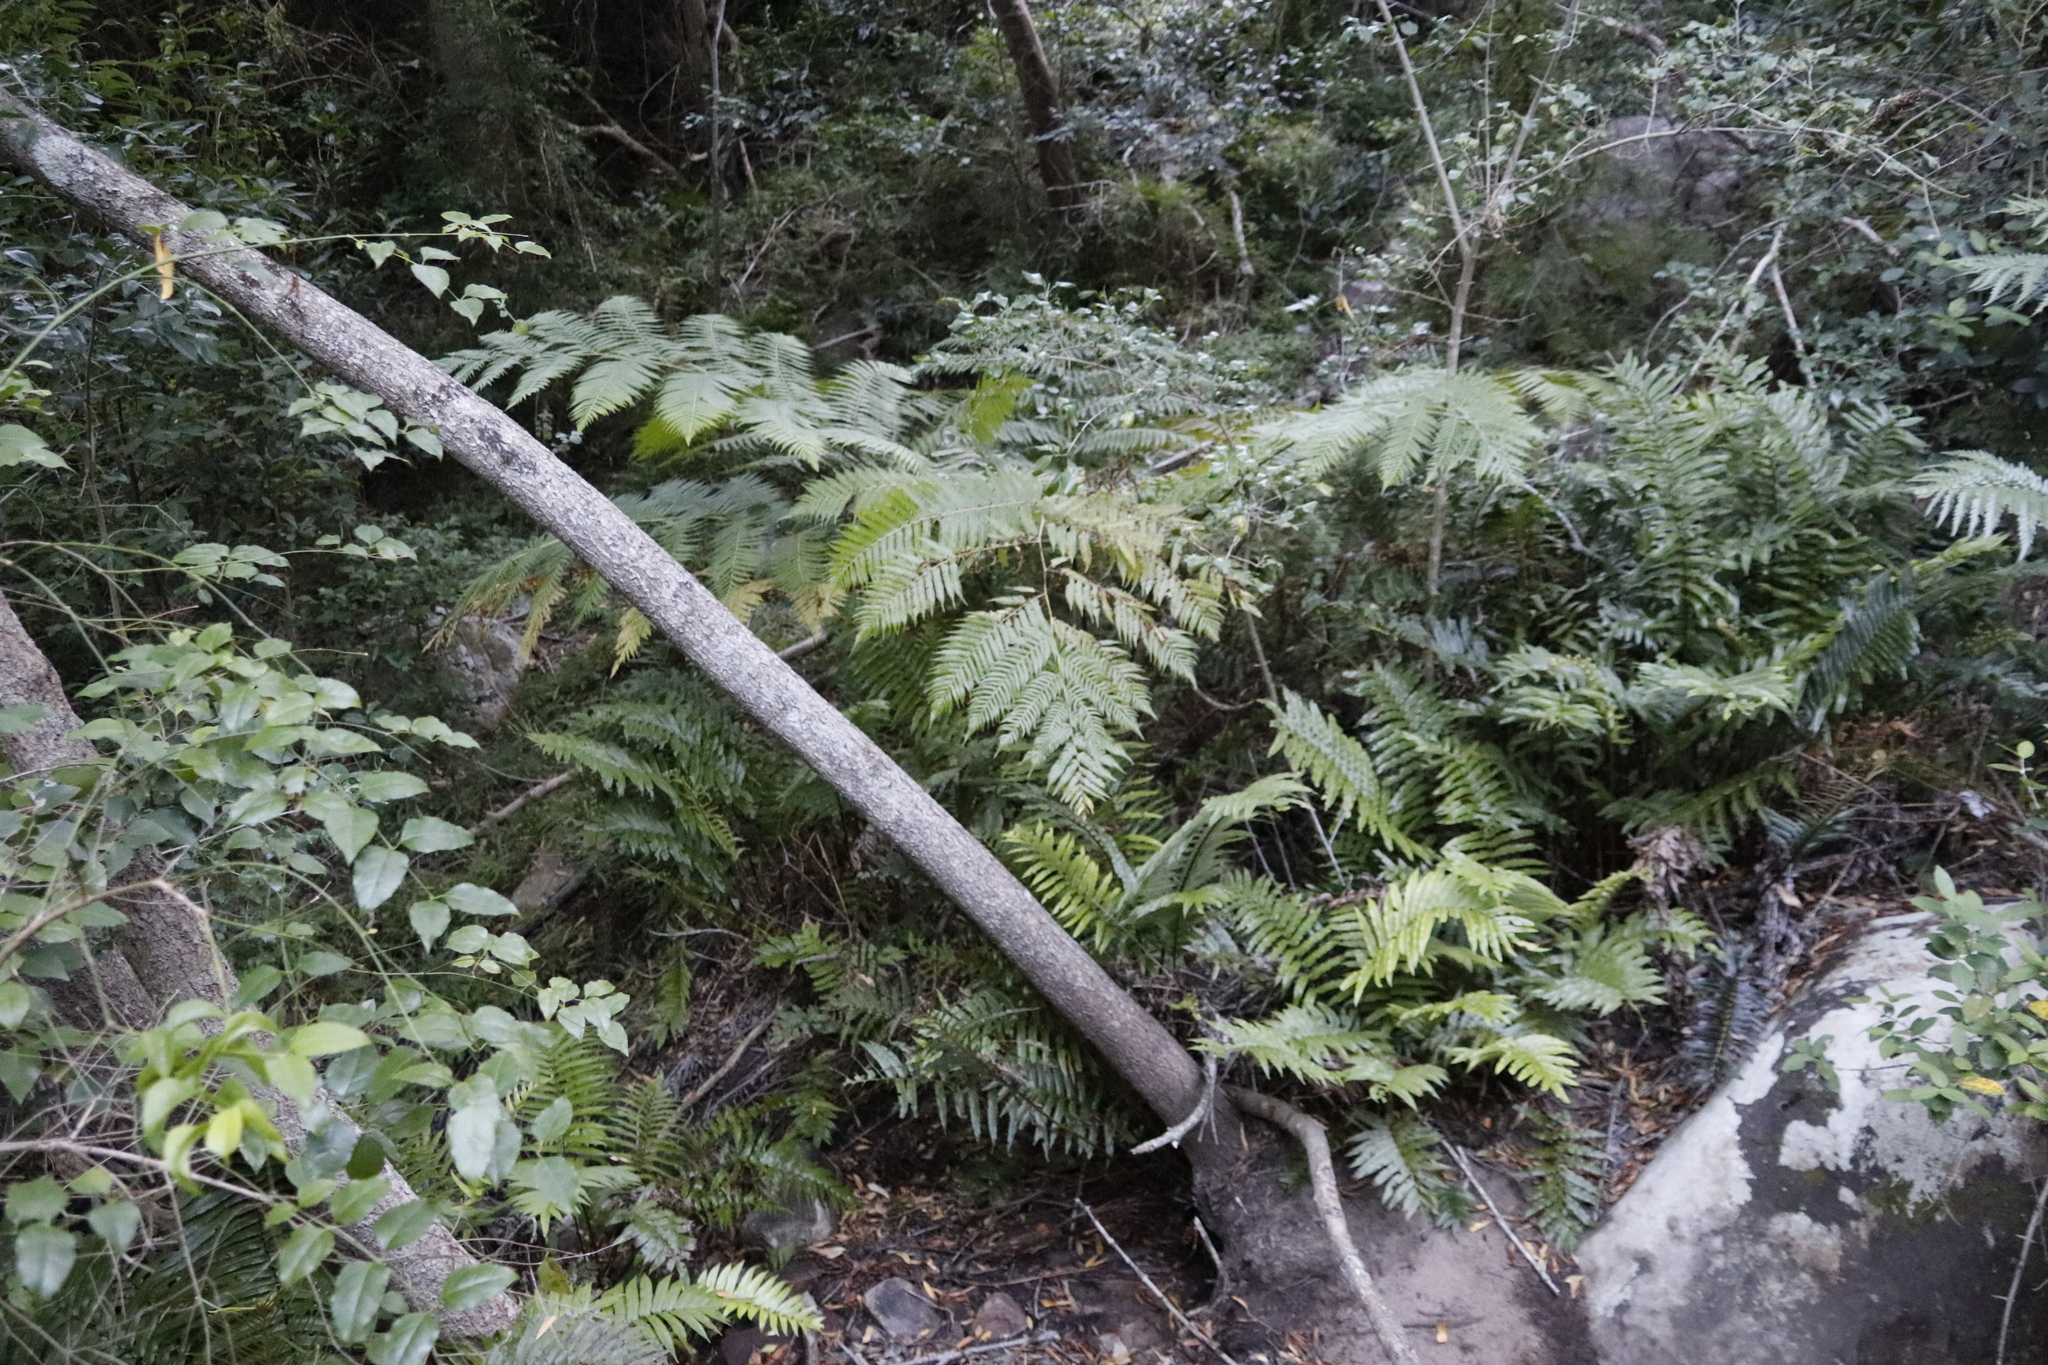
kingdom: Plantae
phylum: Tracheophyta
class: Polypodiopsida
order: Cyatheales
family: Cyatheaceae
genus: Sphaeropteris
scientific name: Sphaeropteris cooperi
